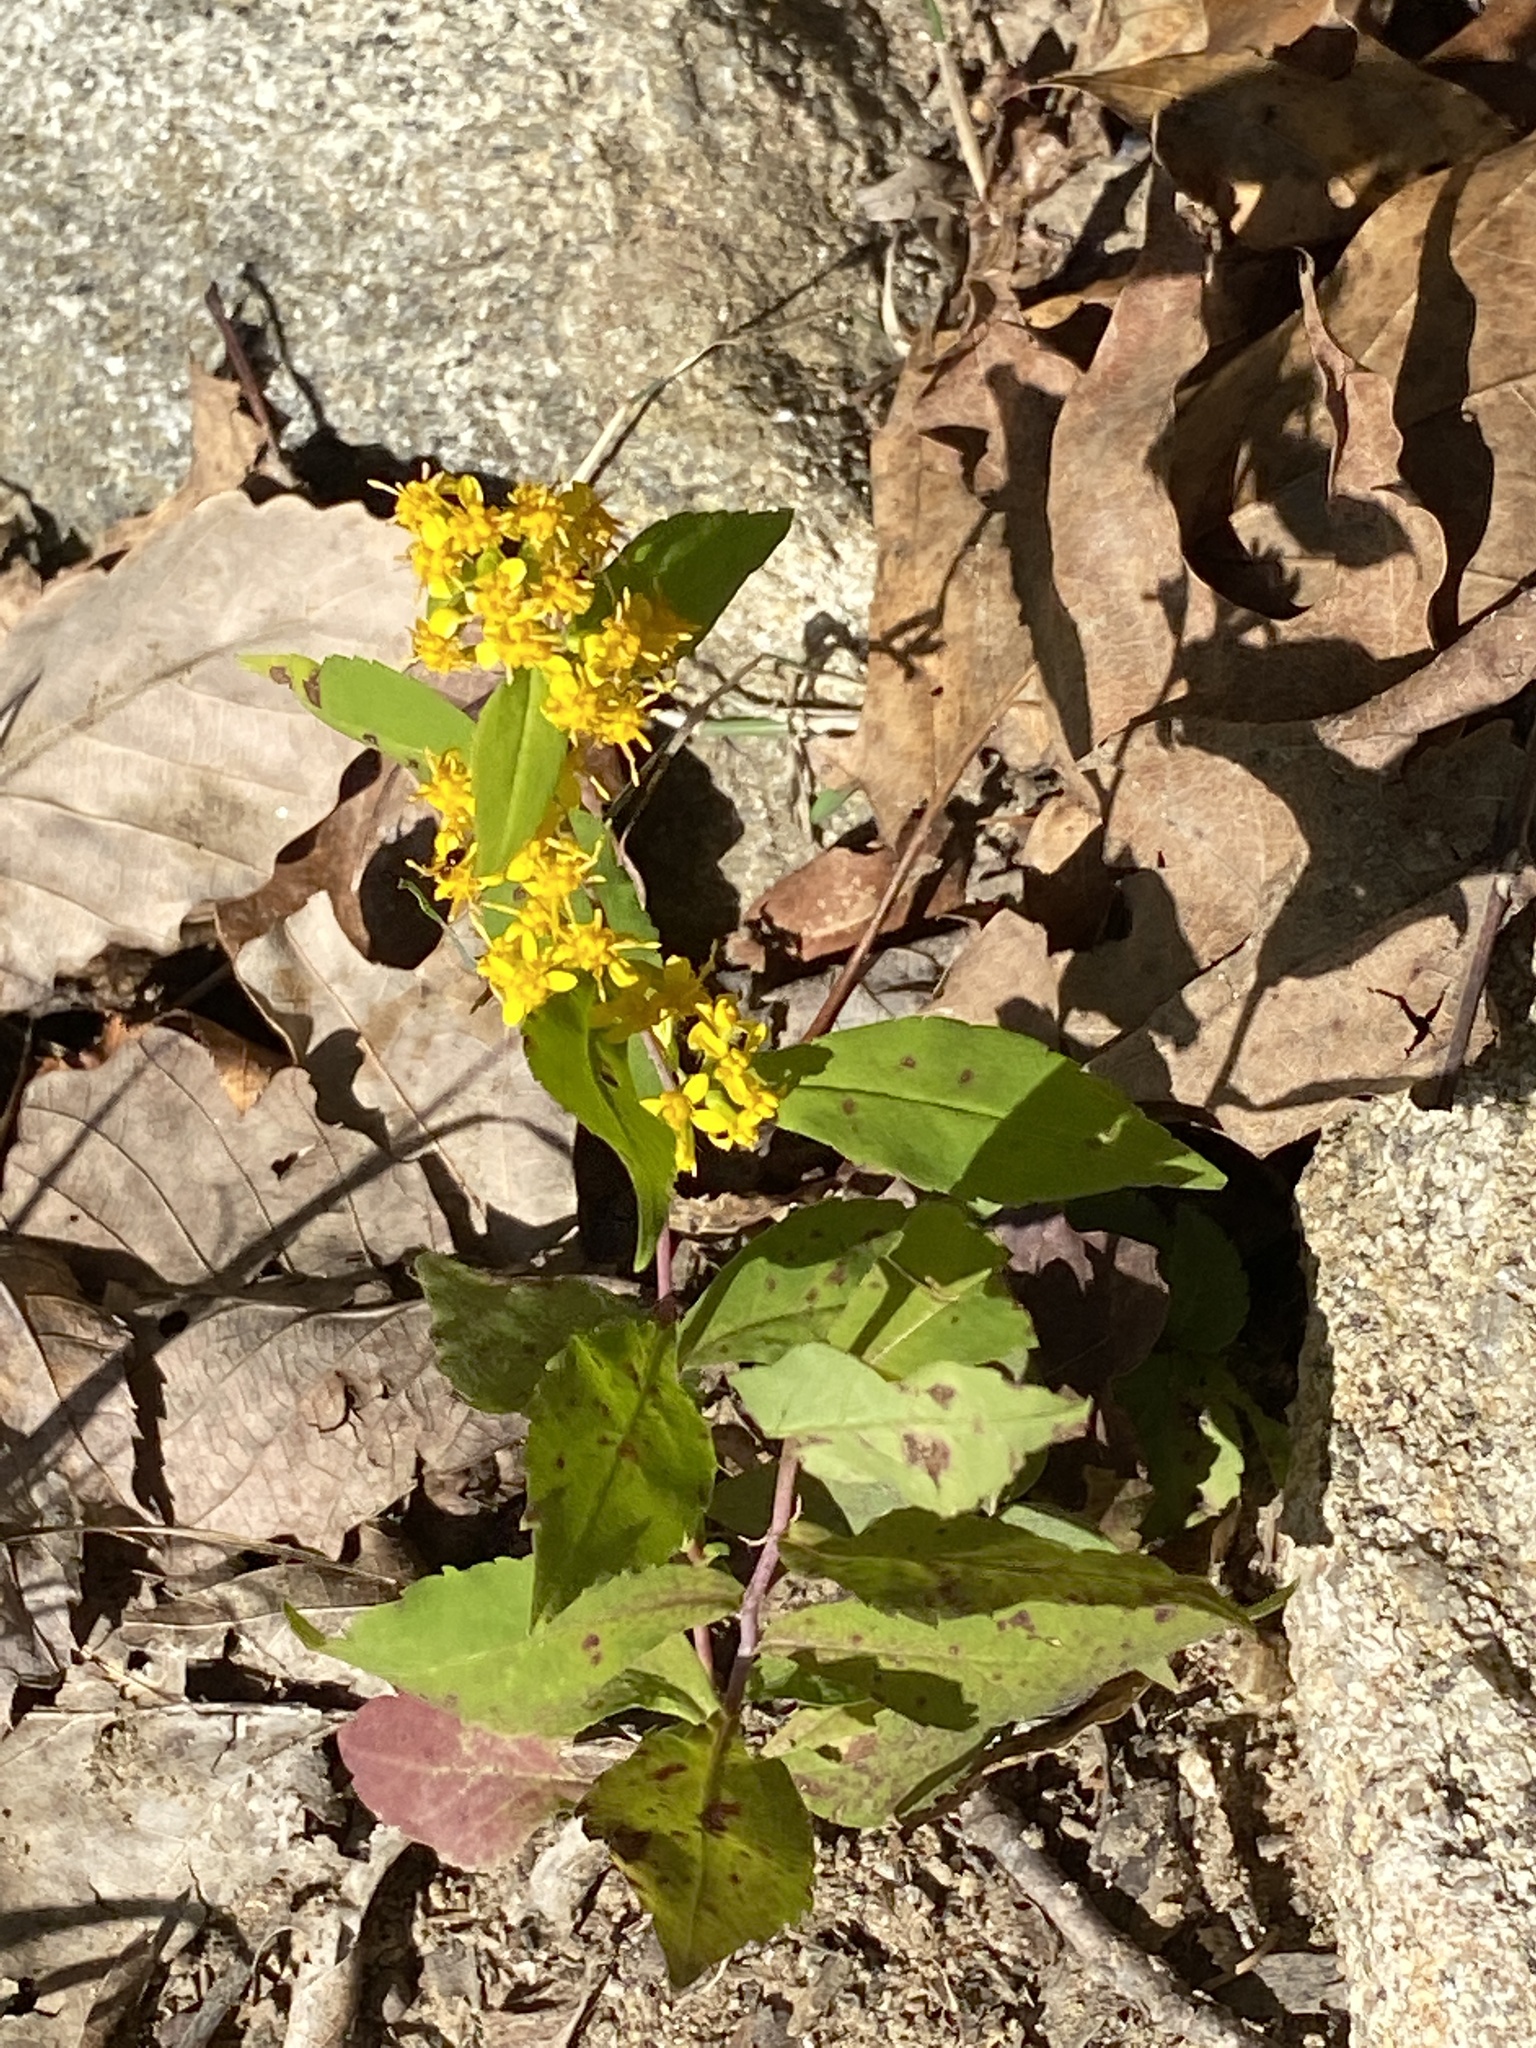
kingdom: Plantae
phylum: Tracheophyta
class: Magnoliopsida
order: Asterales
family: Asteraceae
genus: Solidago
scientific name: Solidago caesia
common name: Woodland goldenrod
